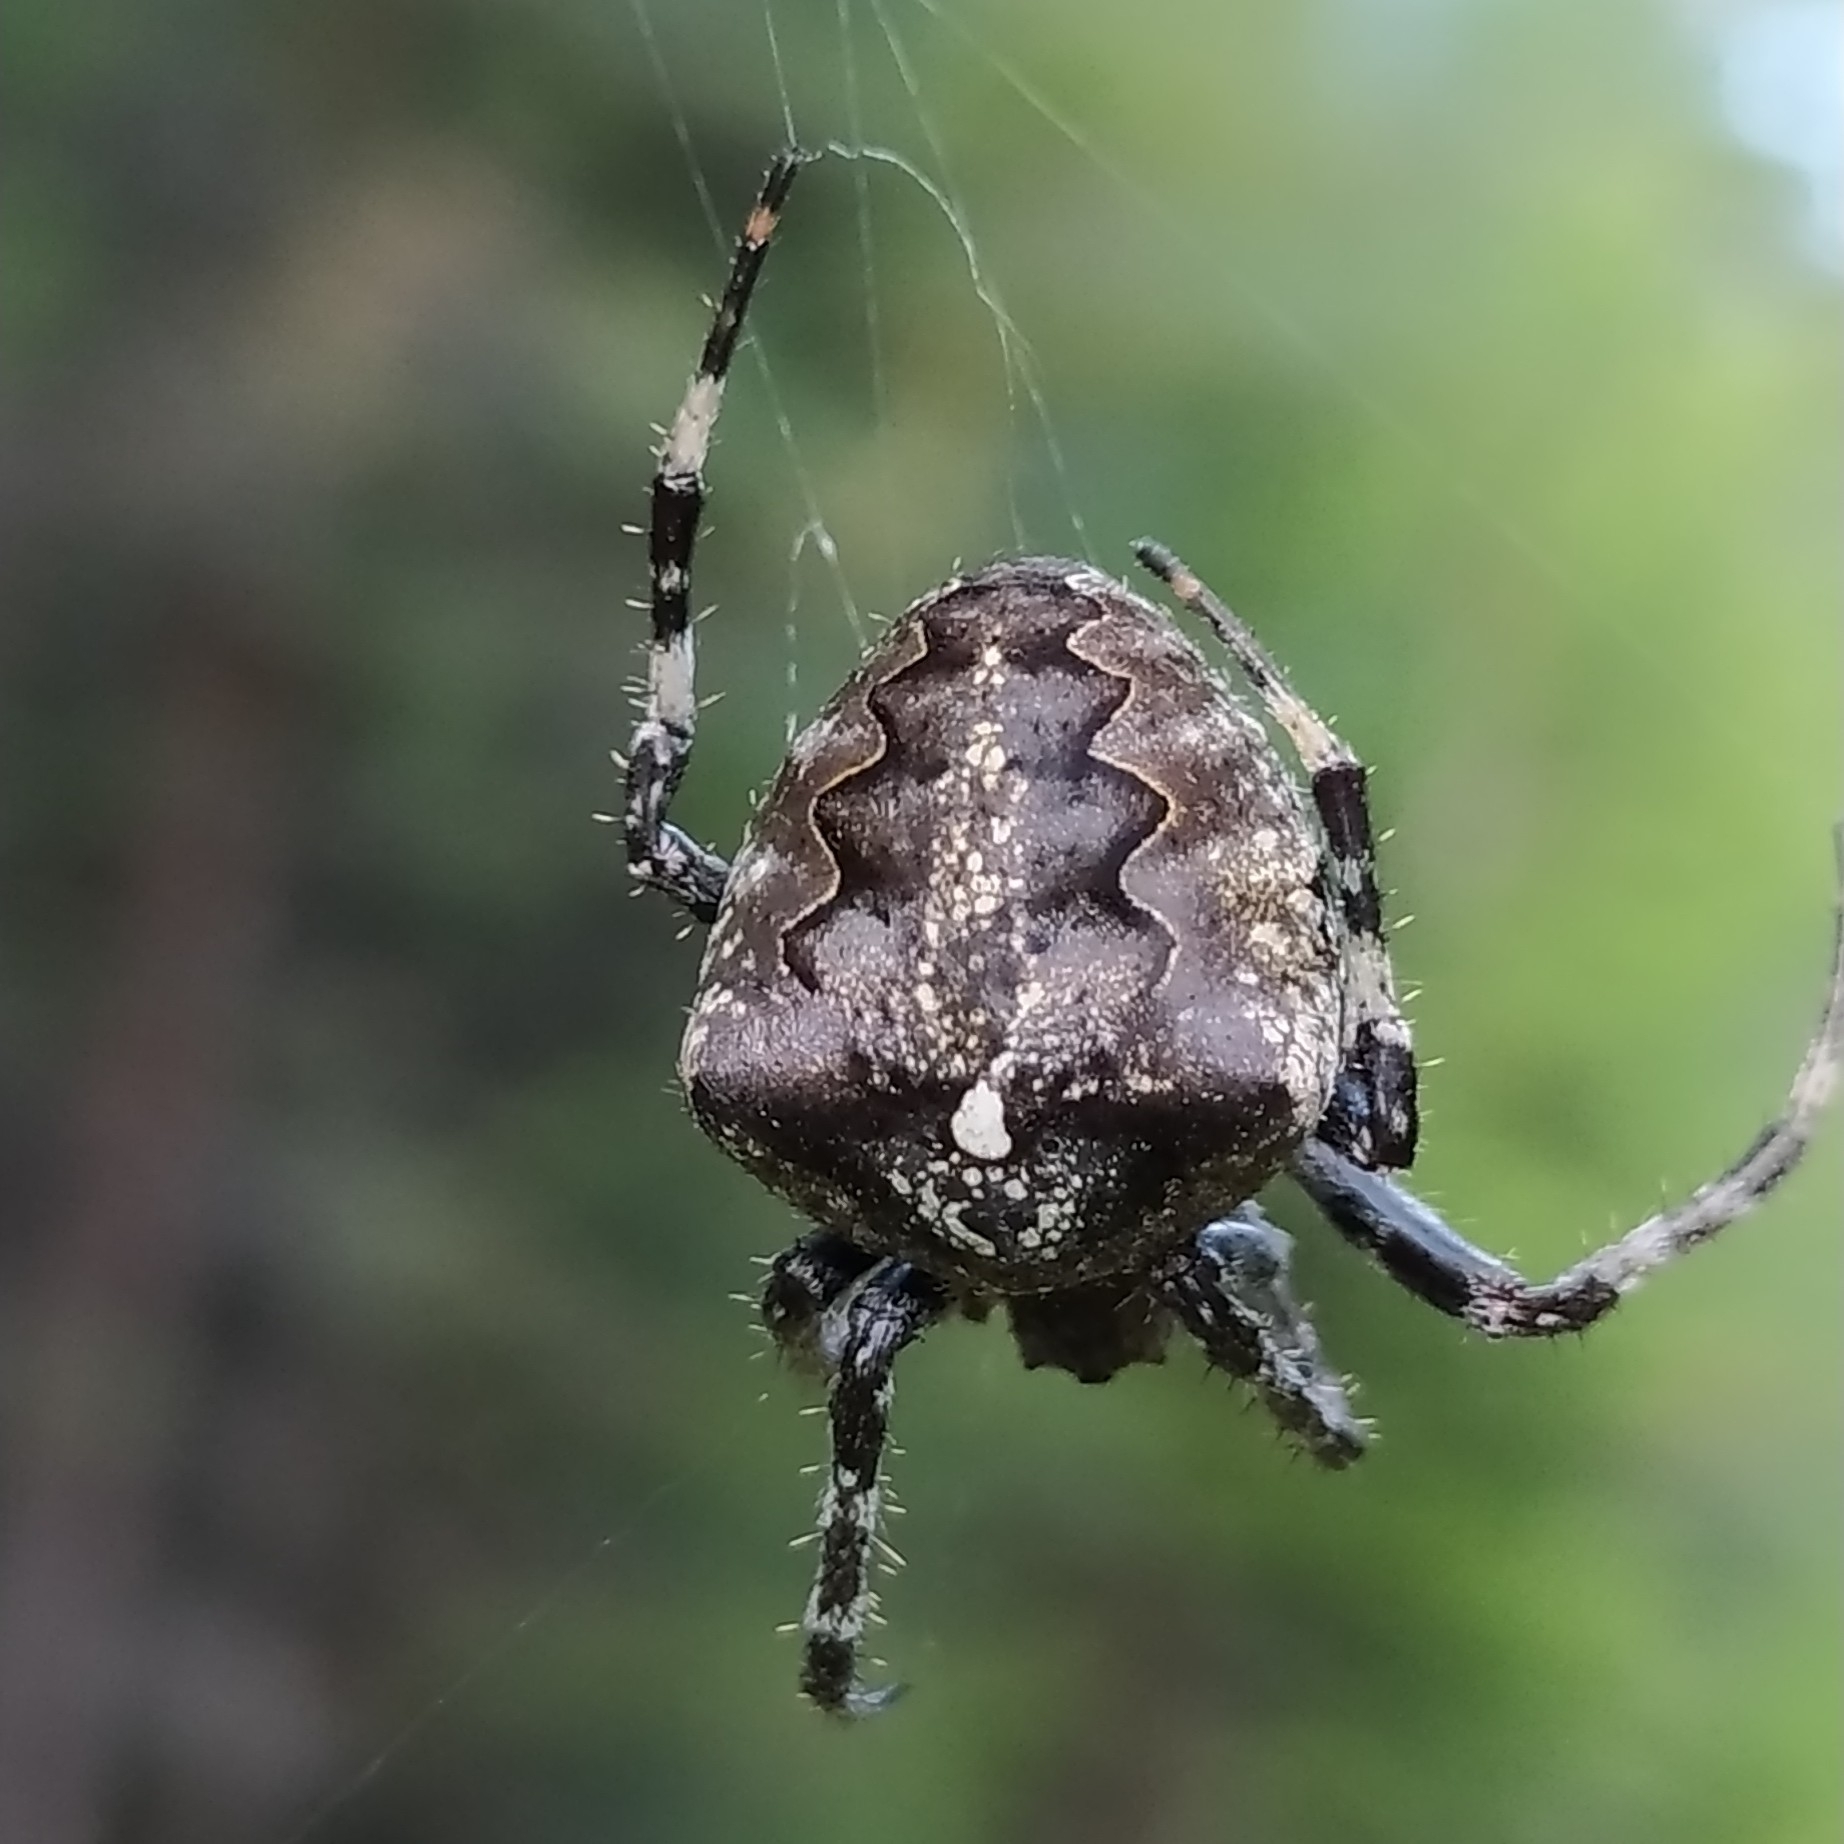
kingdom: Animalia
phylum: Arthropoda
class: Arachnida
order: Araneae
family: Araneidae
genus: Araneus
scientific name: Araneus angulatus
